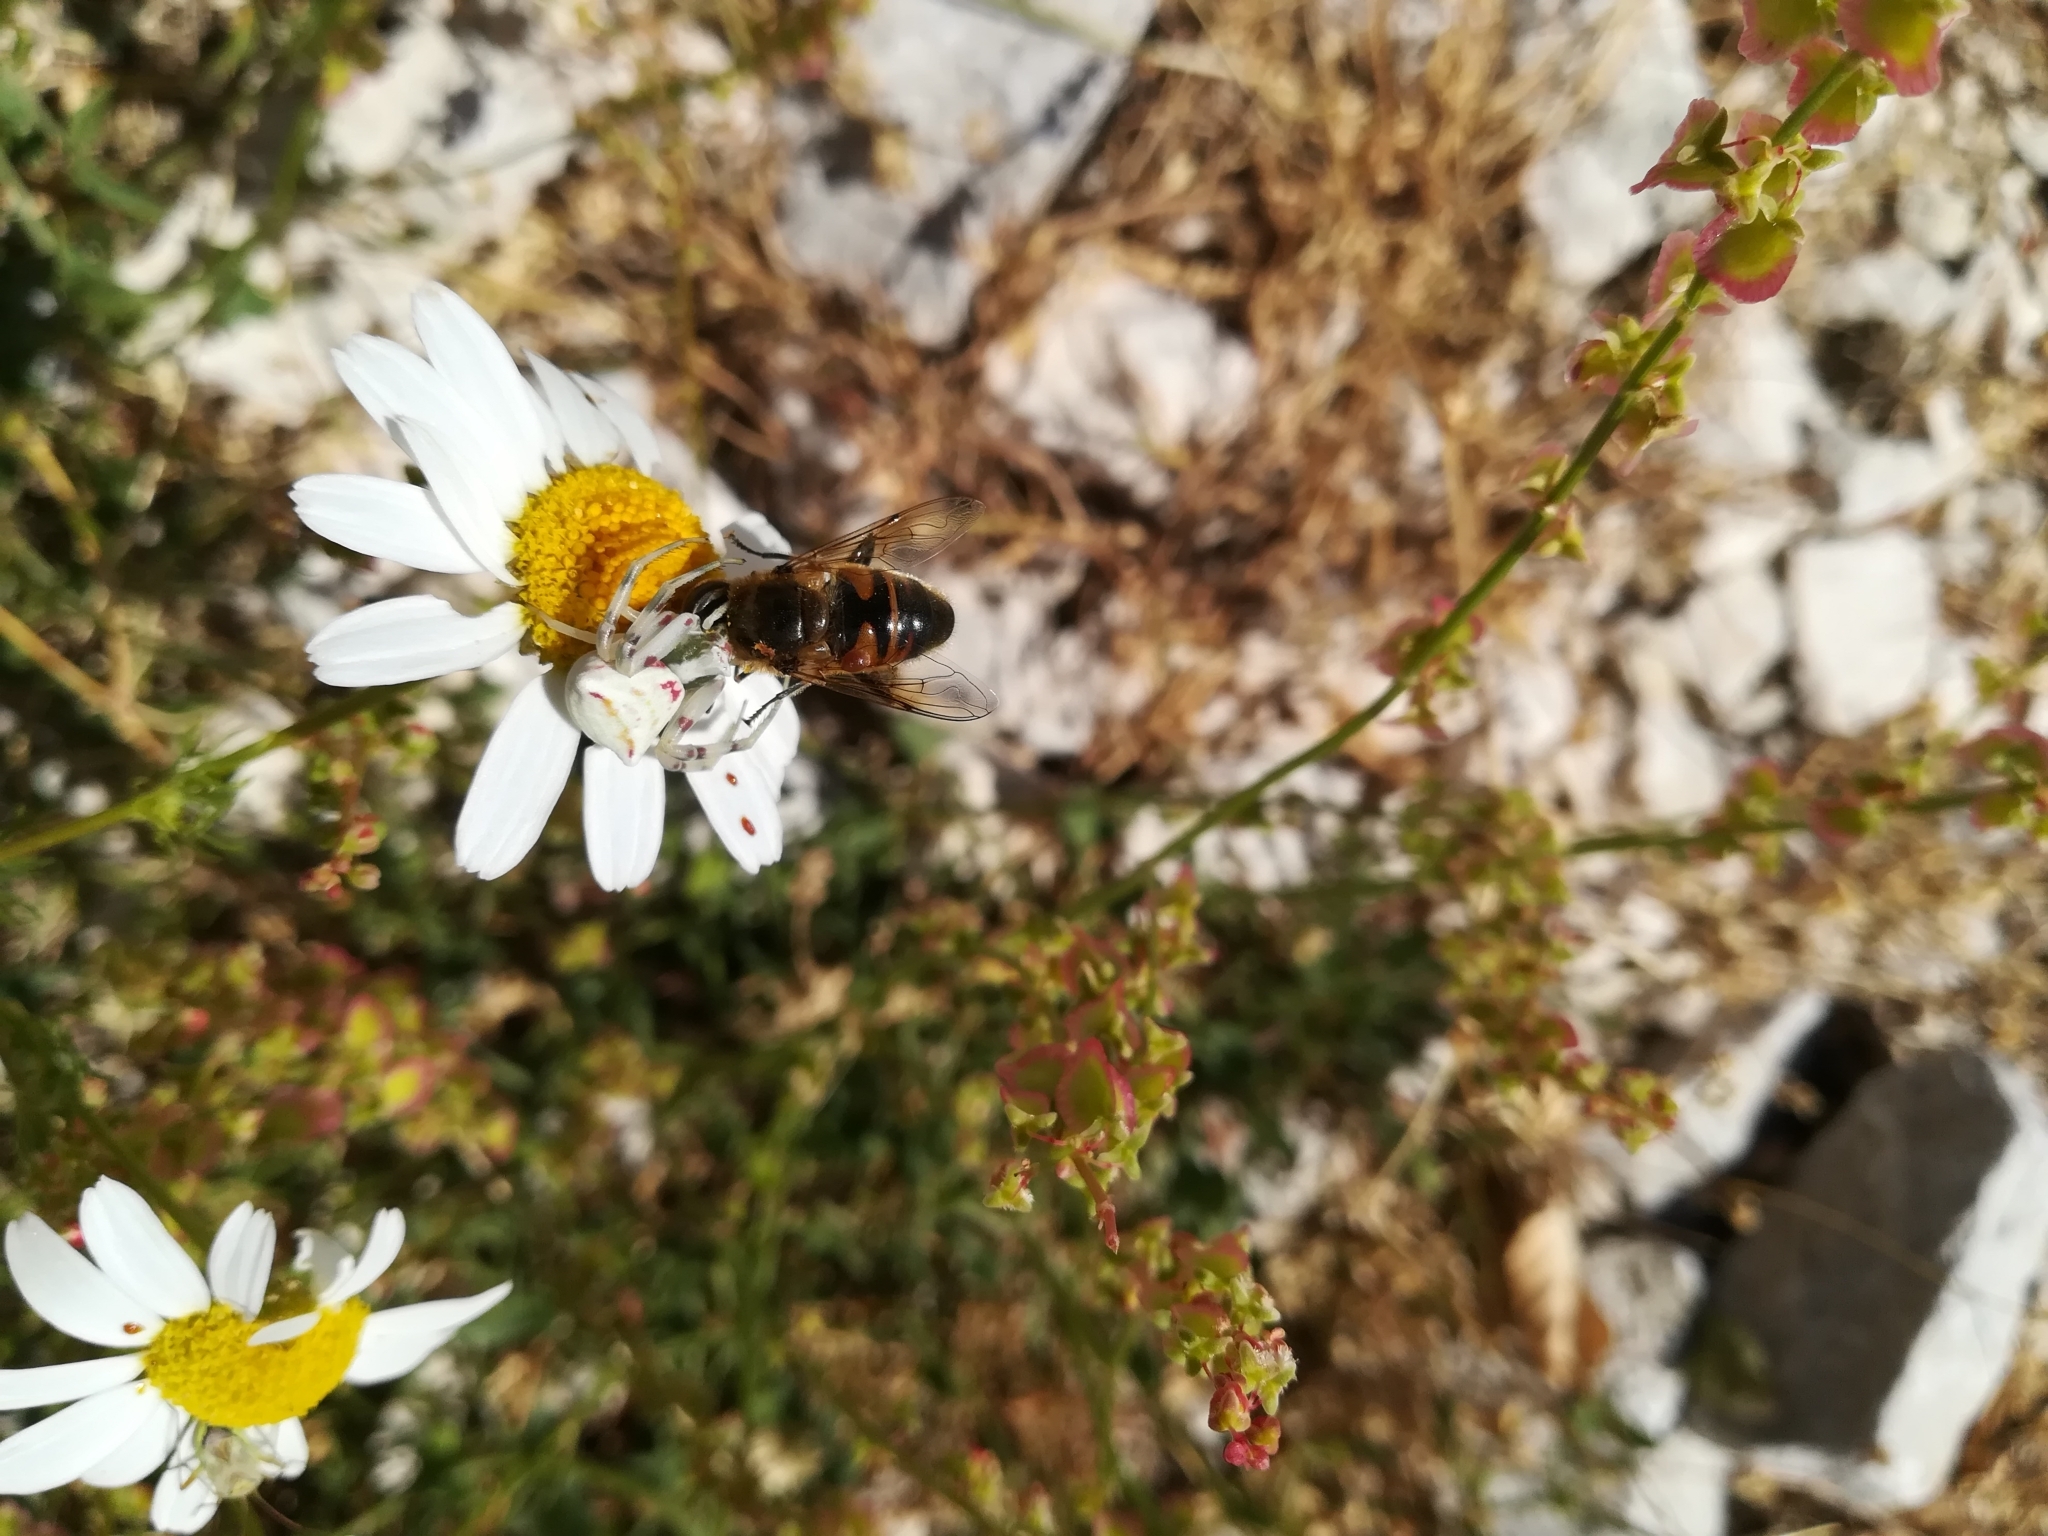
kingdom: Animalia
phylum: Arthropoda
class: Arachnida
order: Araneae
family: Thomisidae
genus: Thomisus
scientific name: Thomisus onustus
